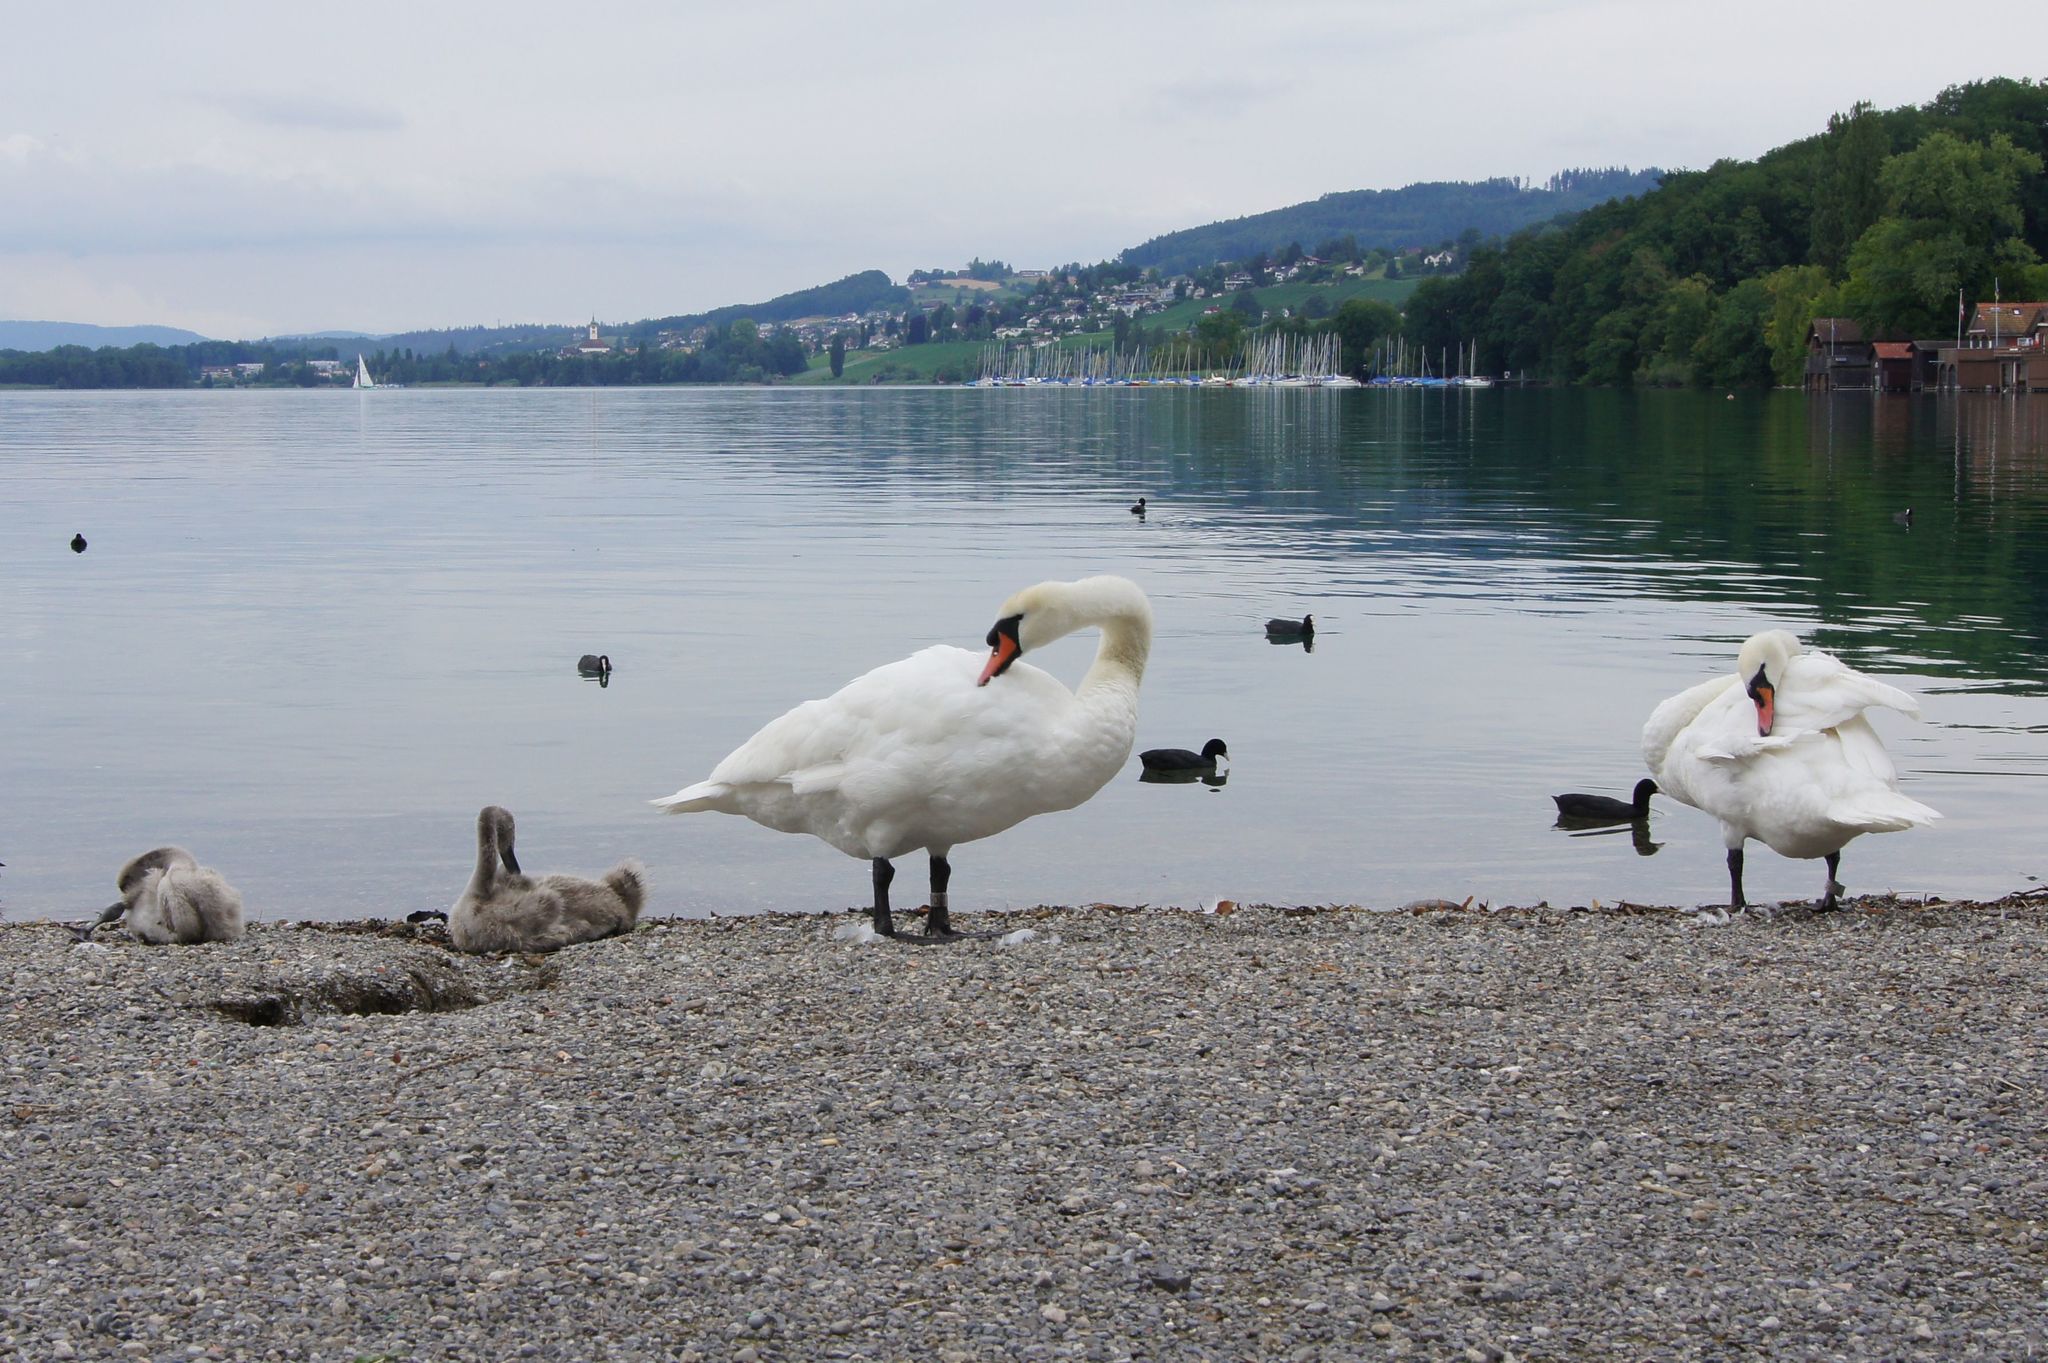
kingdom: Animalia
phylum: Chordata
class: Aves
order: Anseriformes
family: Anatidae
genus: Cygnus
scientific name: Cygnus olor
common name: Mute swan
